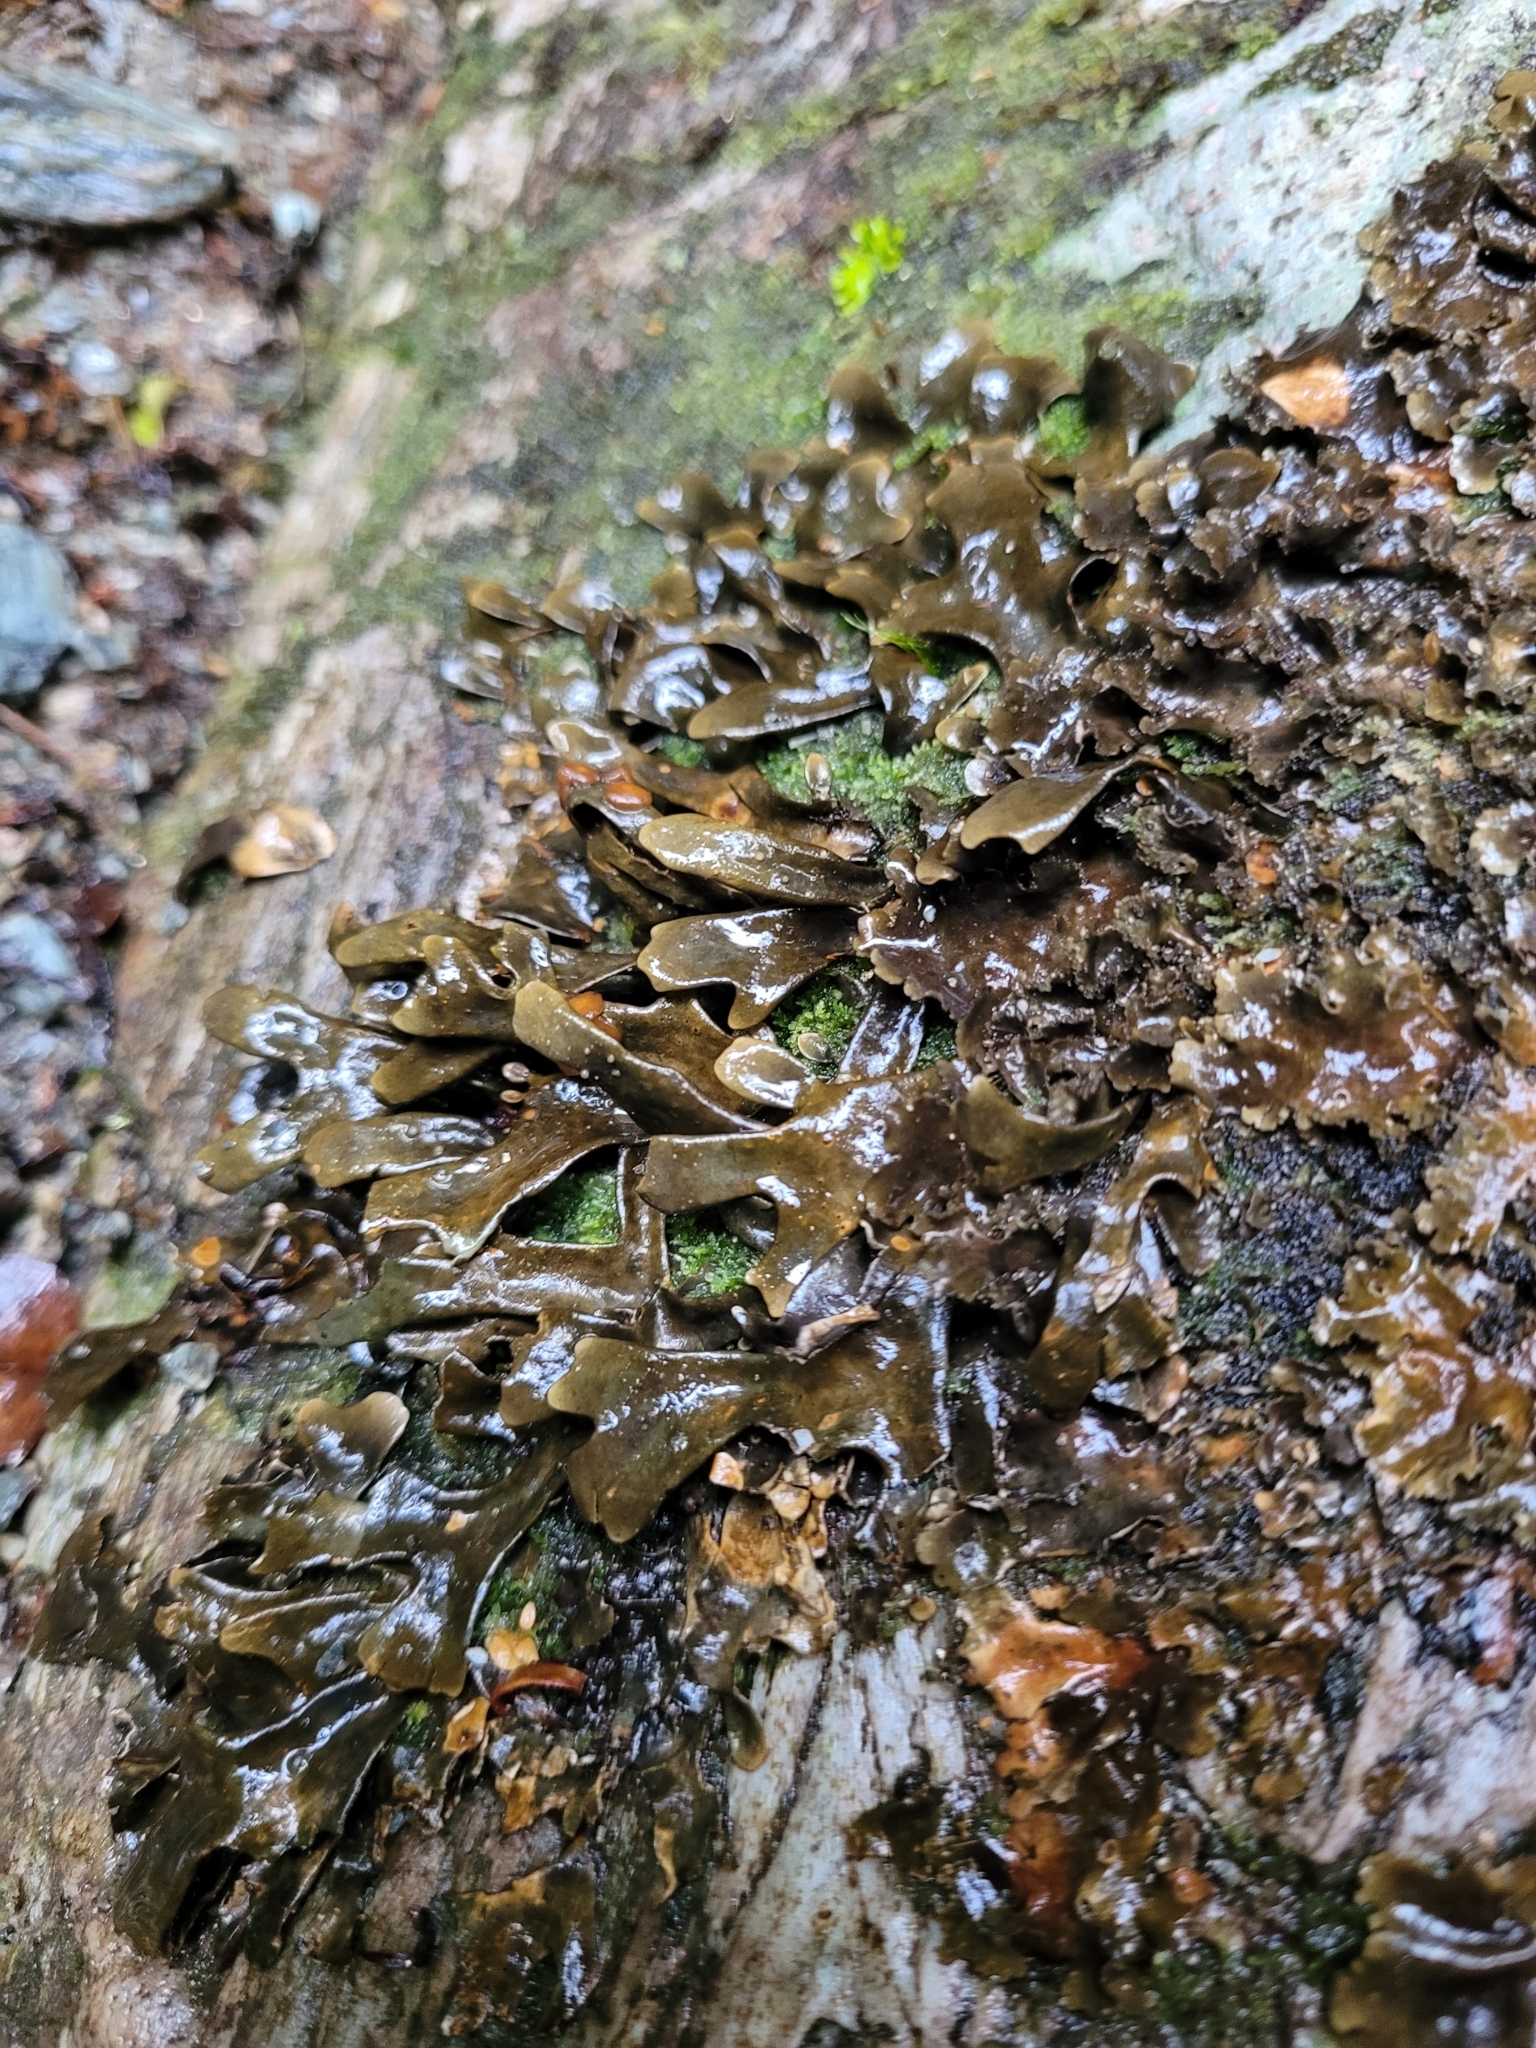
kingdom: Fungi
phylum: Ascomycota
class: Lecanoromycetes
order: Peltigerales
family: Lobariaceae
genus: Pseudocyphellaria
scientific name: Pseudocyphellaria dissimilis
